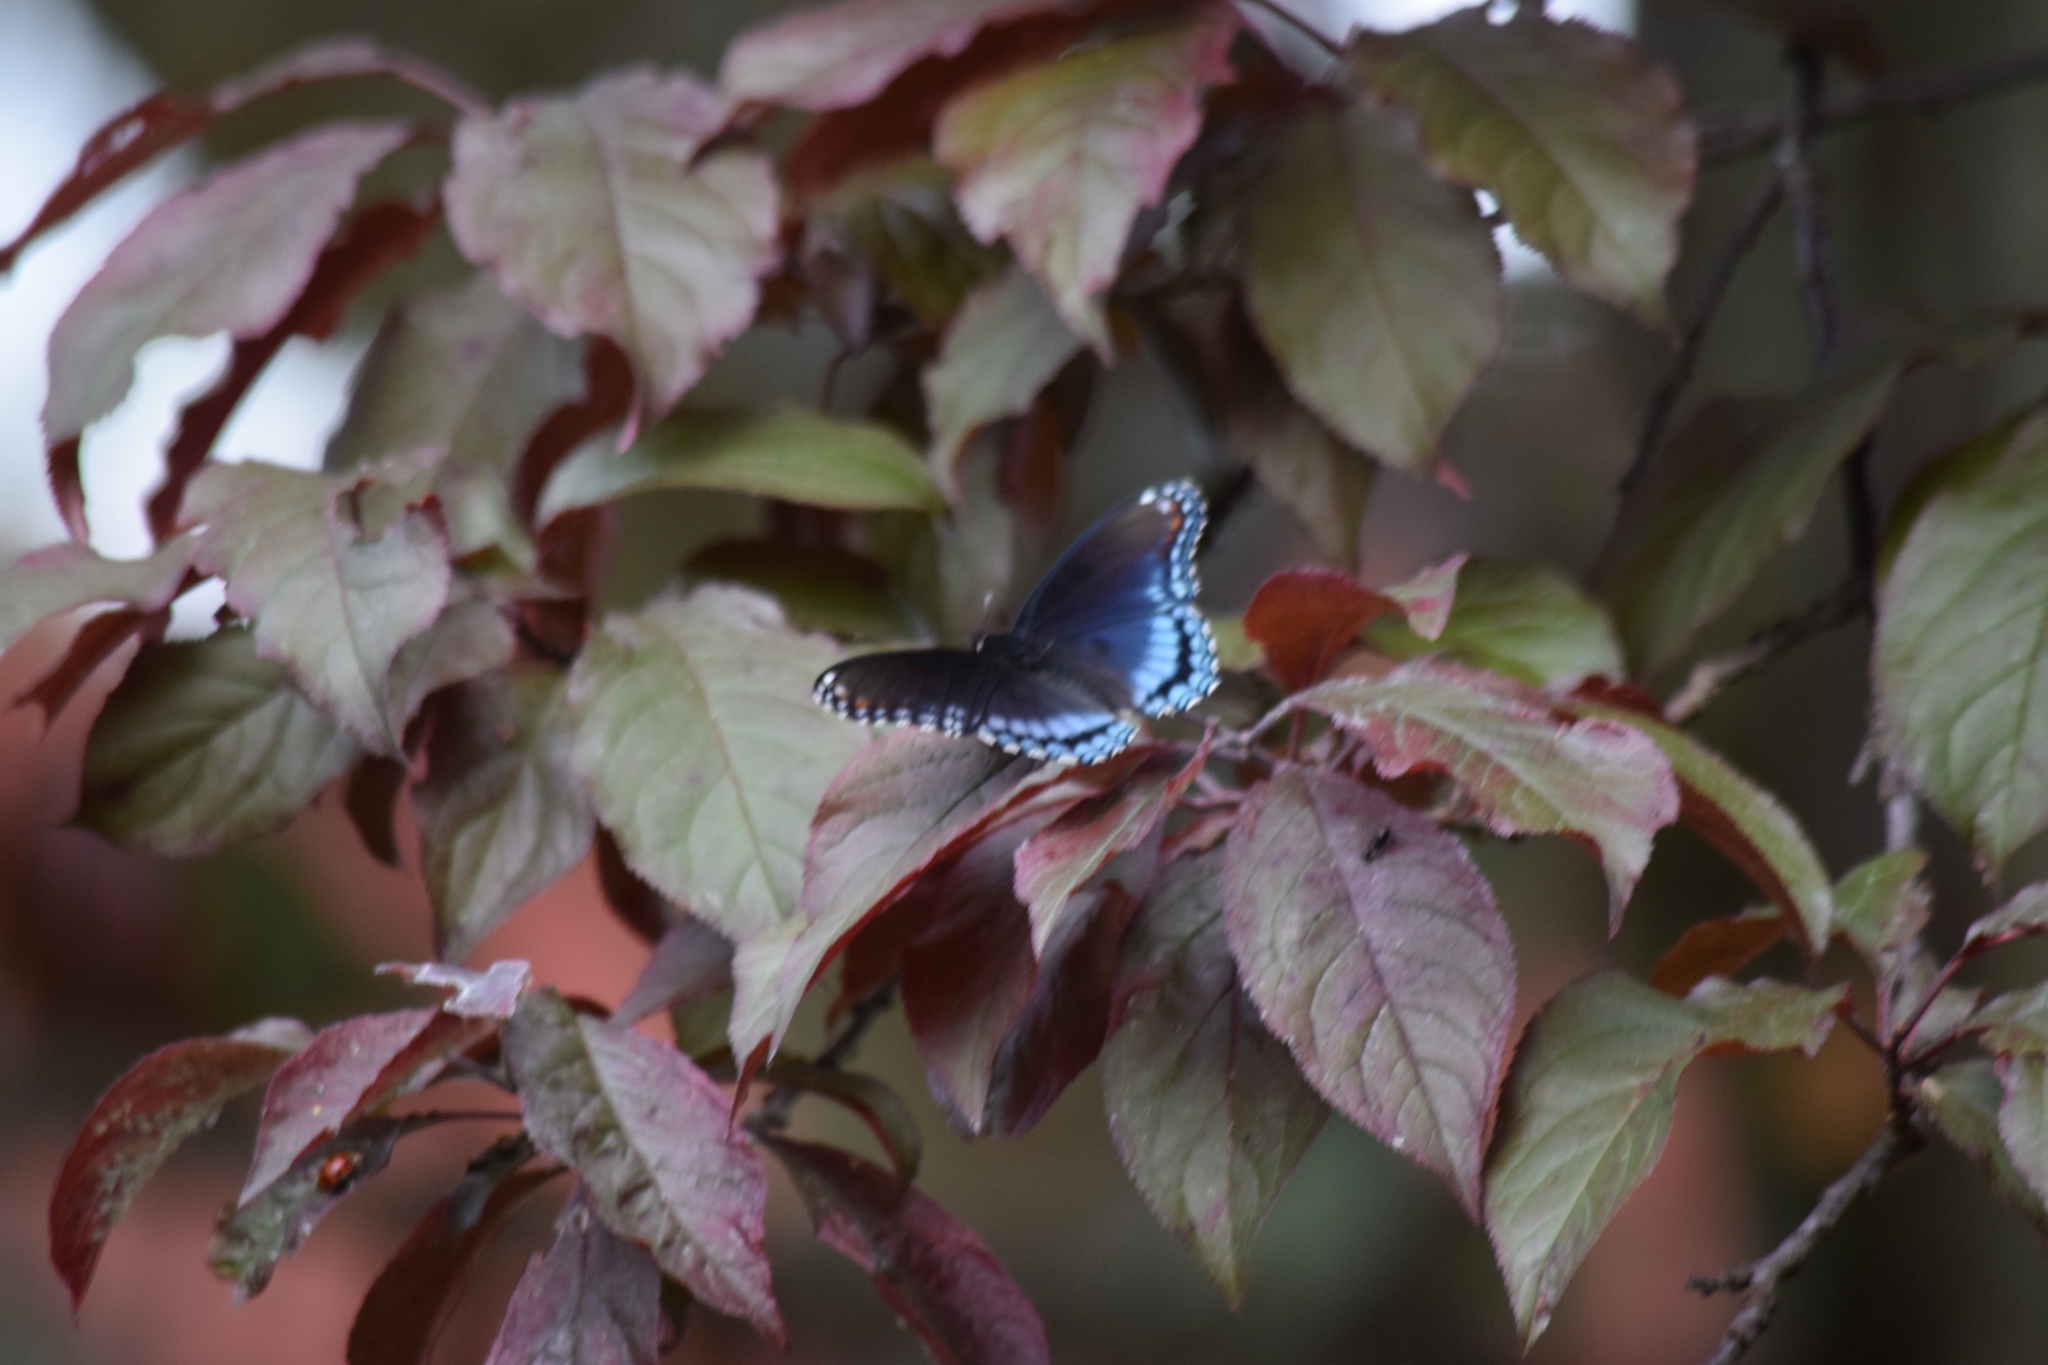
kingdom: Animalia
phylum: Arthropoda
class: Insecta
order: Lepidoptera
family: Nymphalidae
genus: Limenitis
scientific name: Limenitis astyanax
